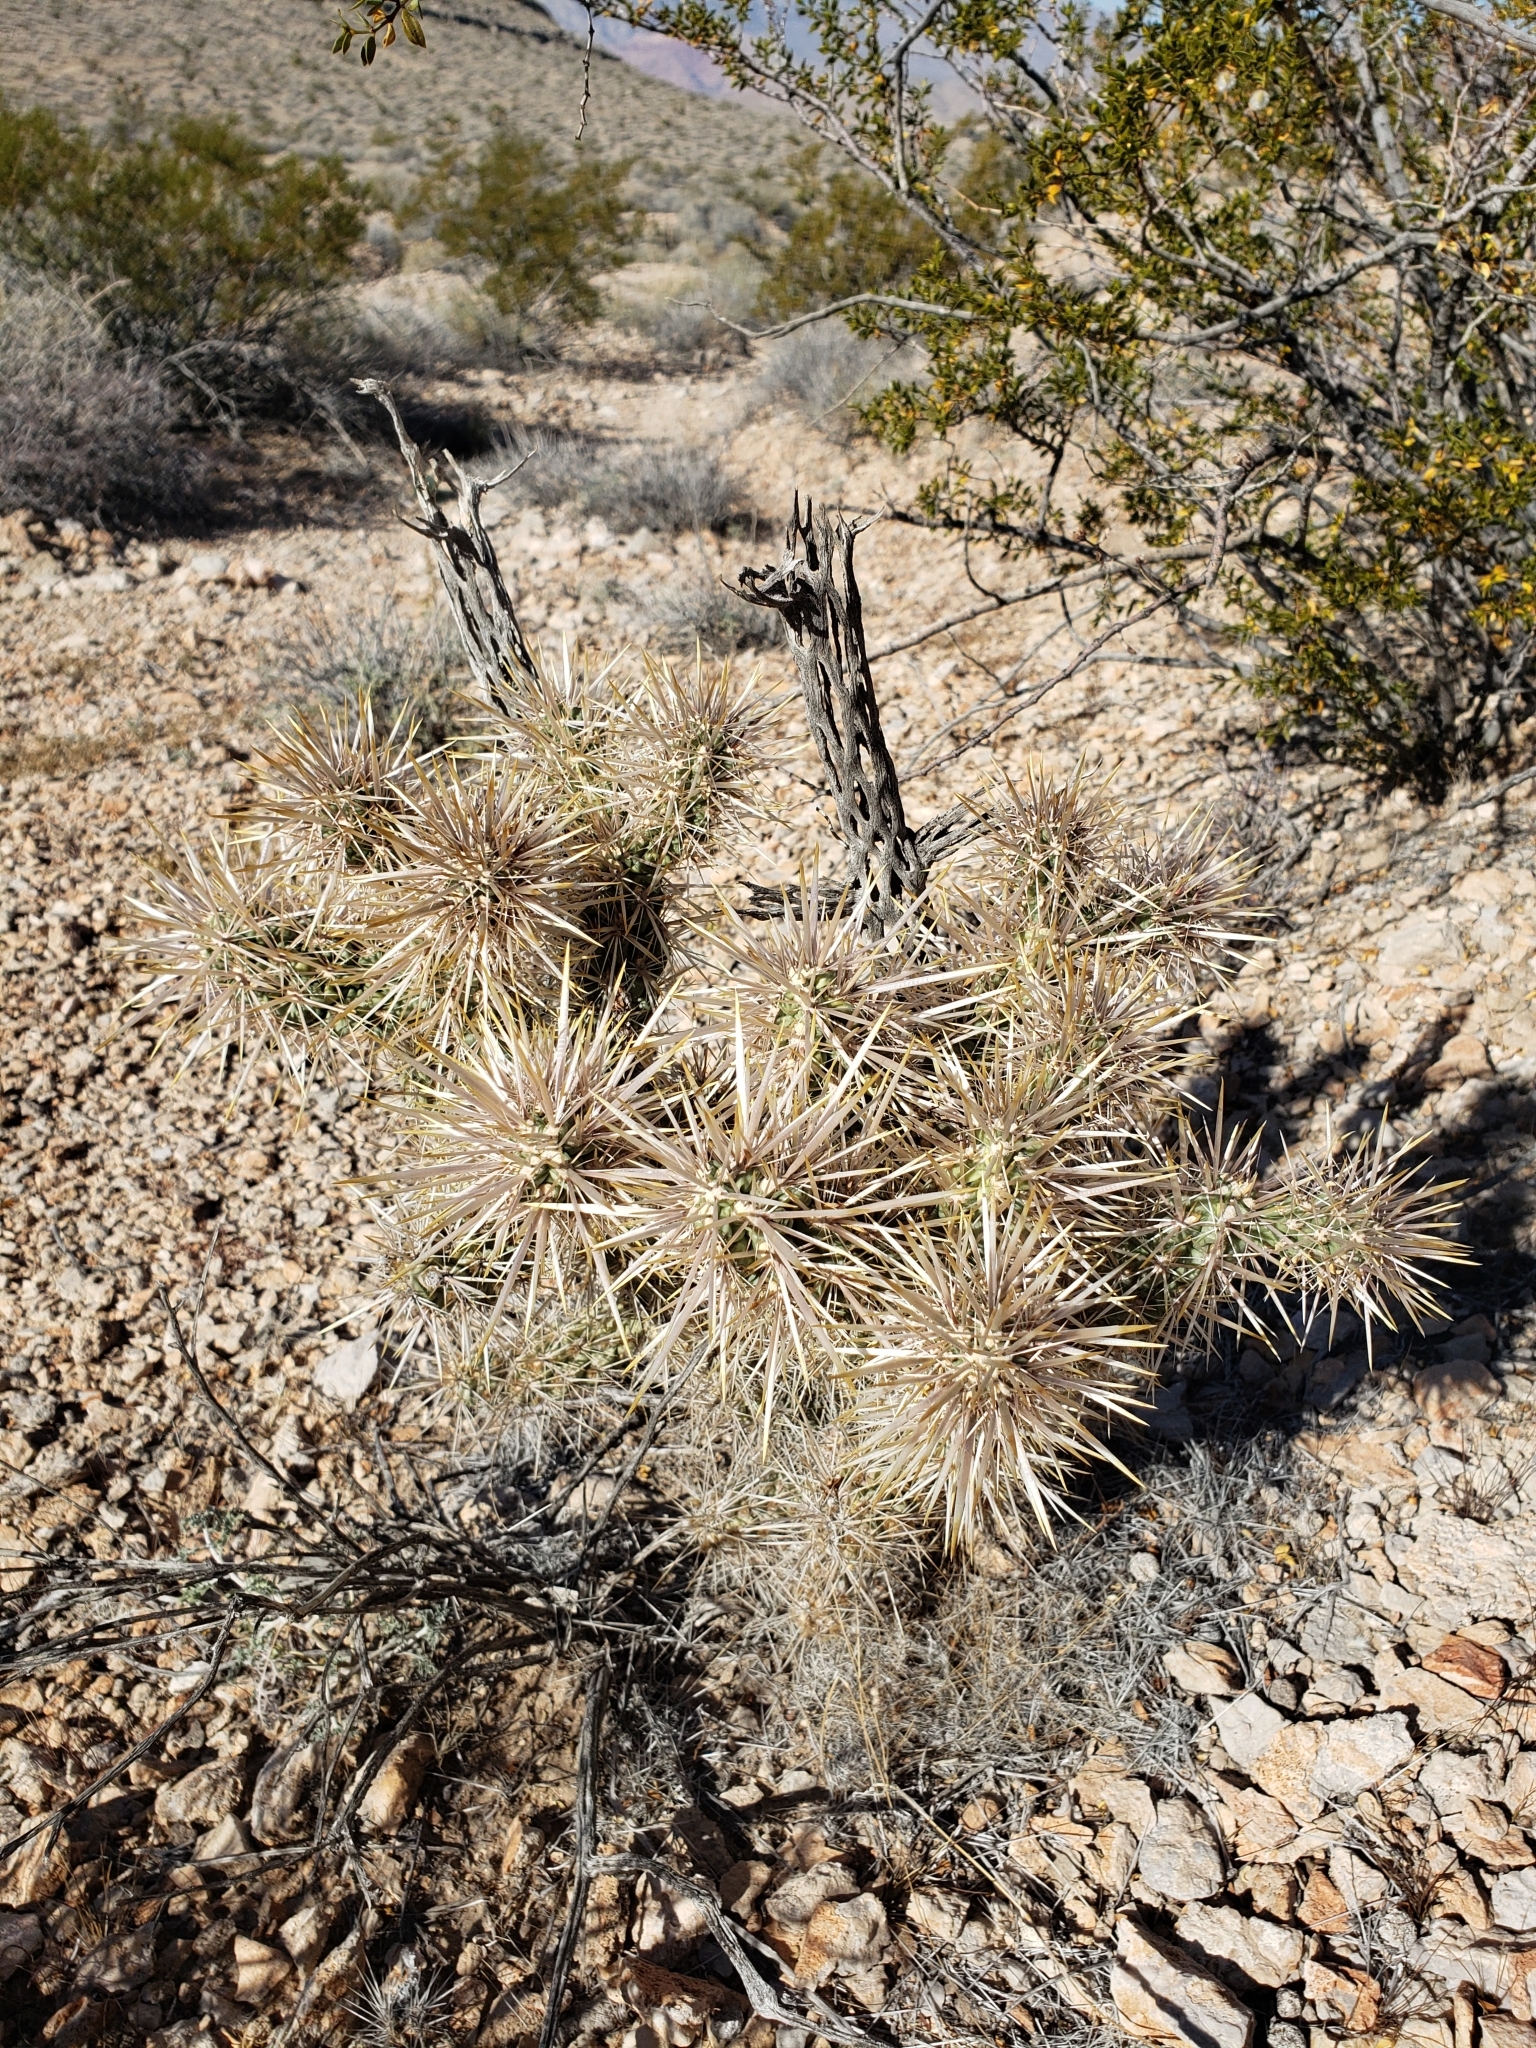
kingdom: Plantae
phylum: Tracheophyta
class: Magnoliopsida
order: Caryophyllales
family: Cactaceae
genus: Cylindropuntia
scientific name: Cylindropuntia echinocarpa
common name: Ground cholla
